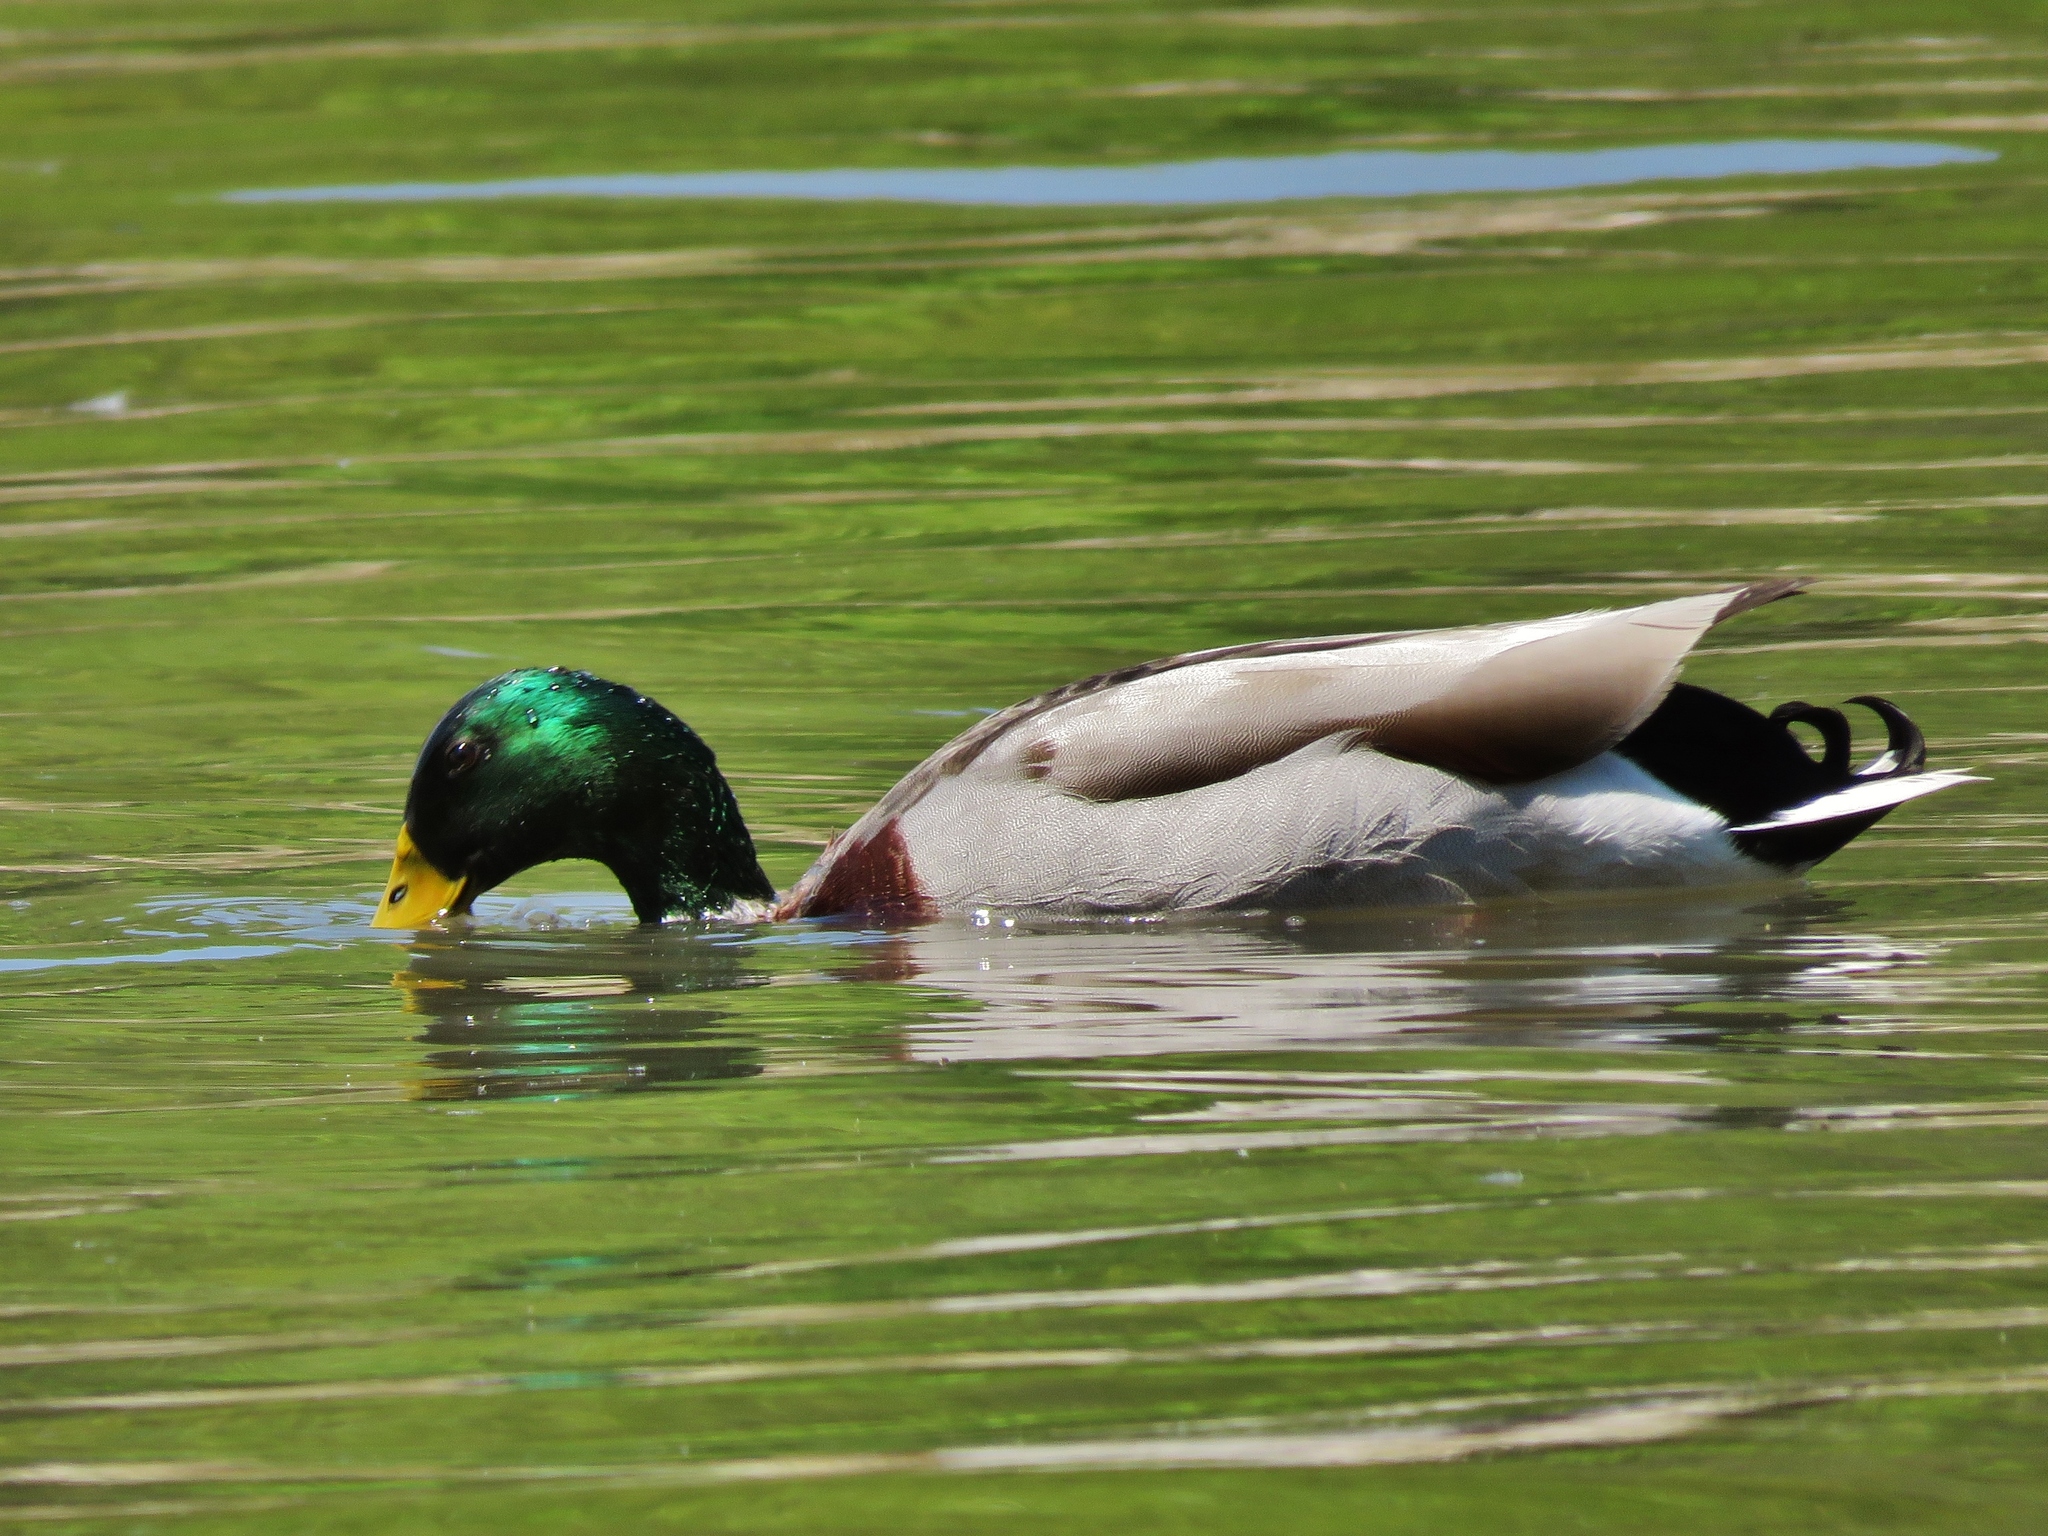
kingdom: Animalia
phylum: Chordata
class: Aves
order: Anseriformes
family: Anatidae
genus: Anas
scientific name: Anas platyrhynchos
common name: Mallard
